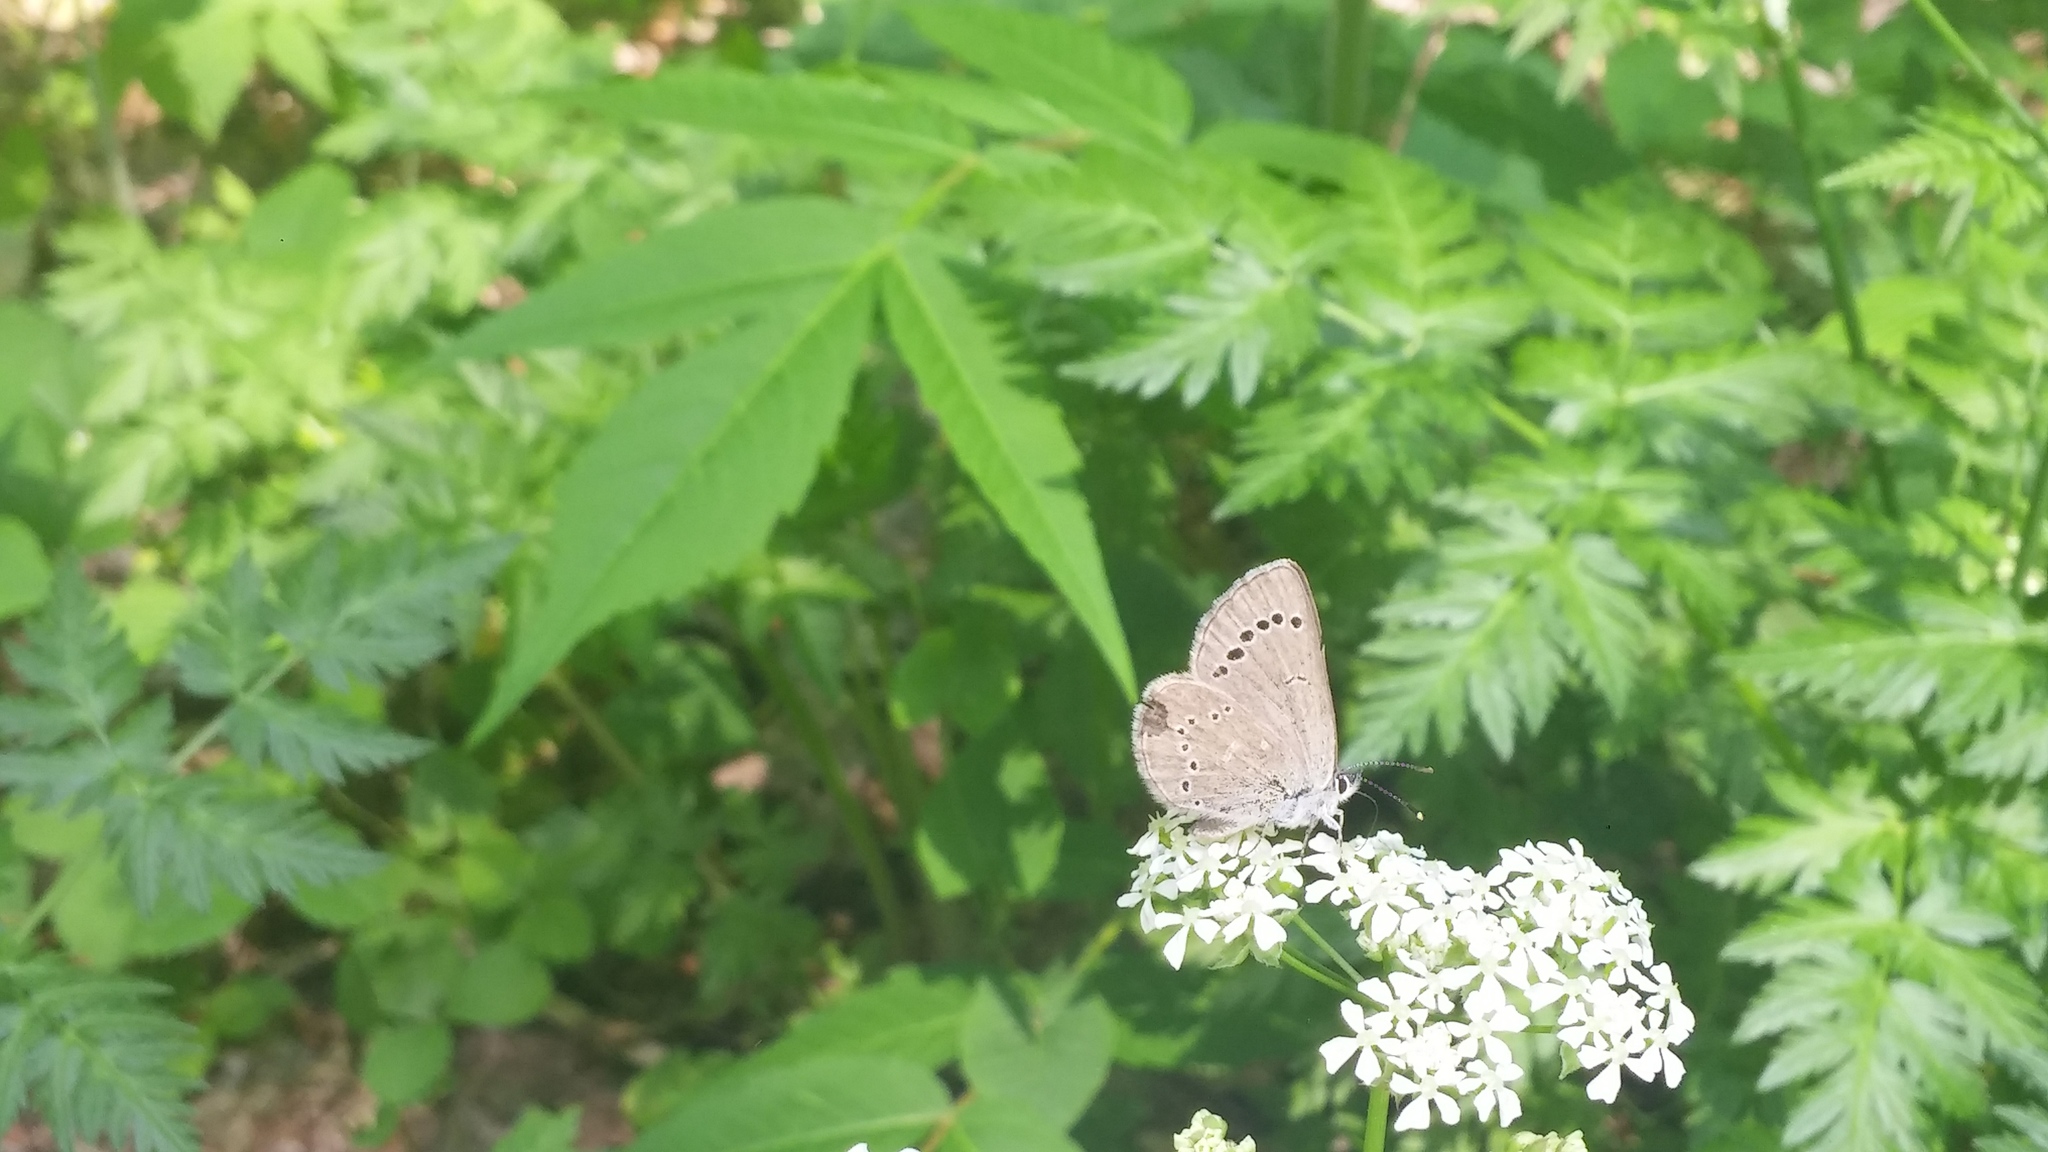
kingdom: Animalia
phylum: Arthropoda
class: Insecta
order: Lepidoptera
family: Lycaenidae
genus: Glaucopsyche
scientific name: Glaucopsyche lygdamus
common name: Silvery blue
